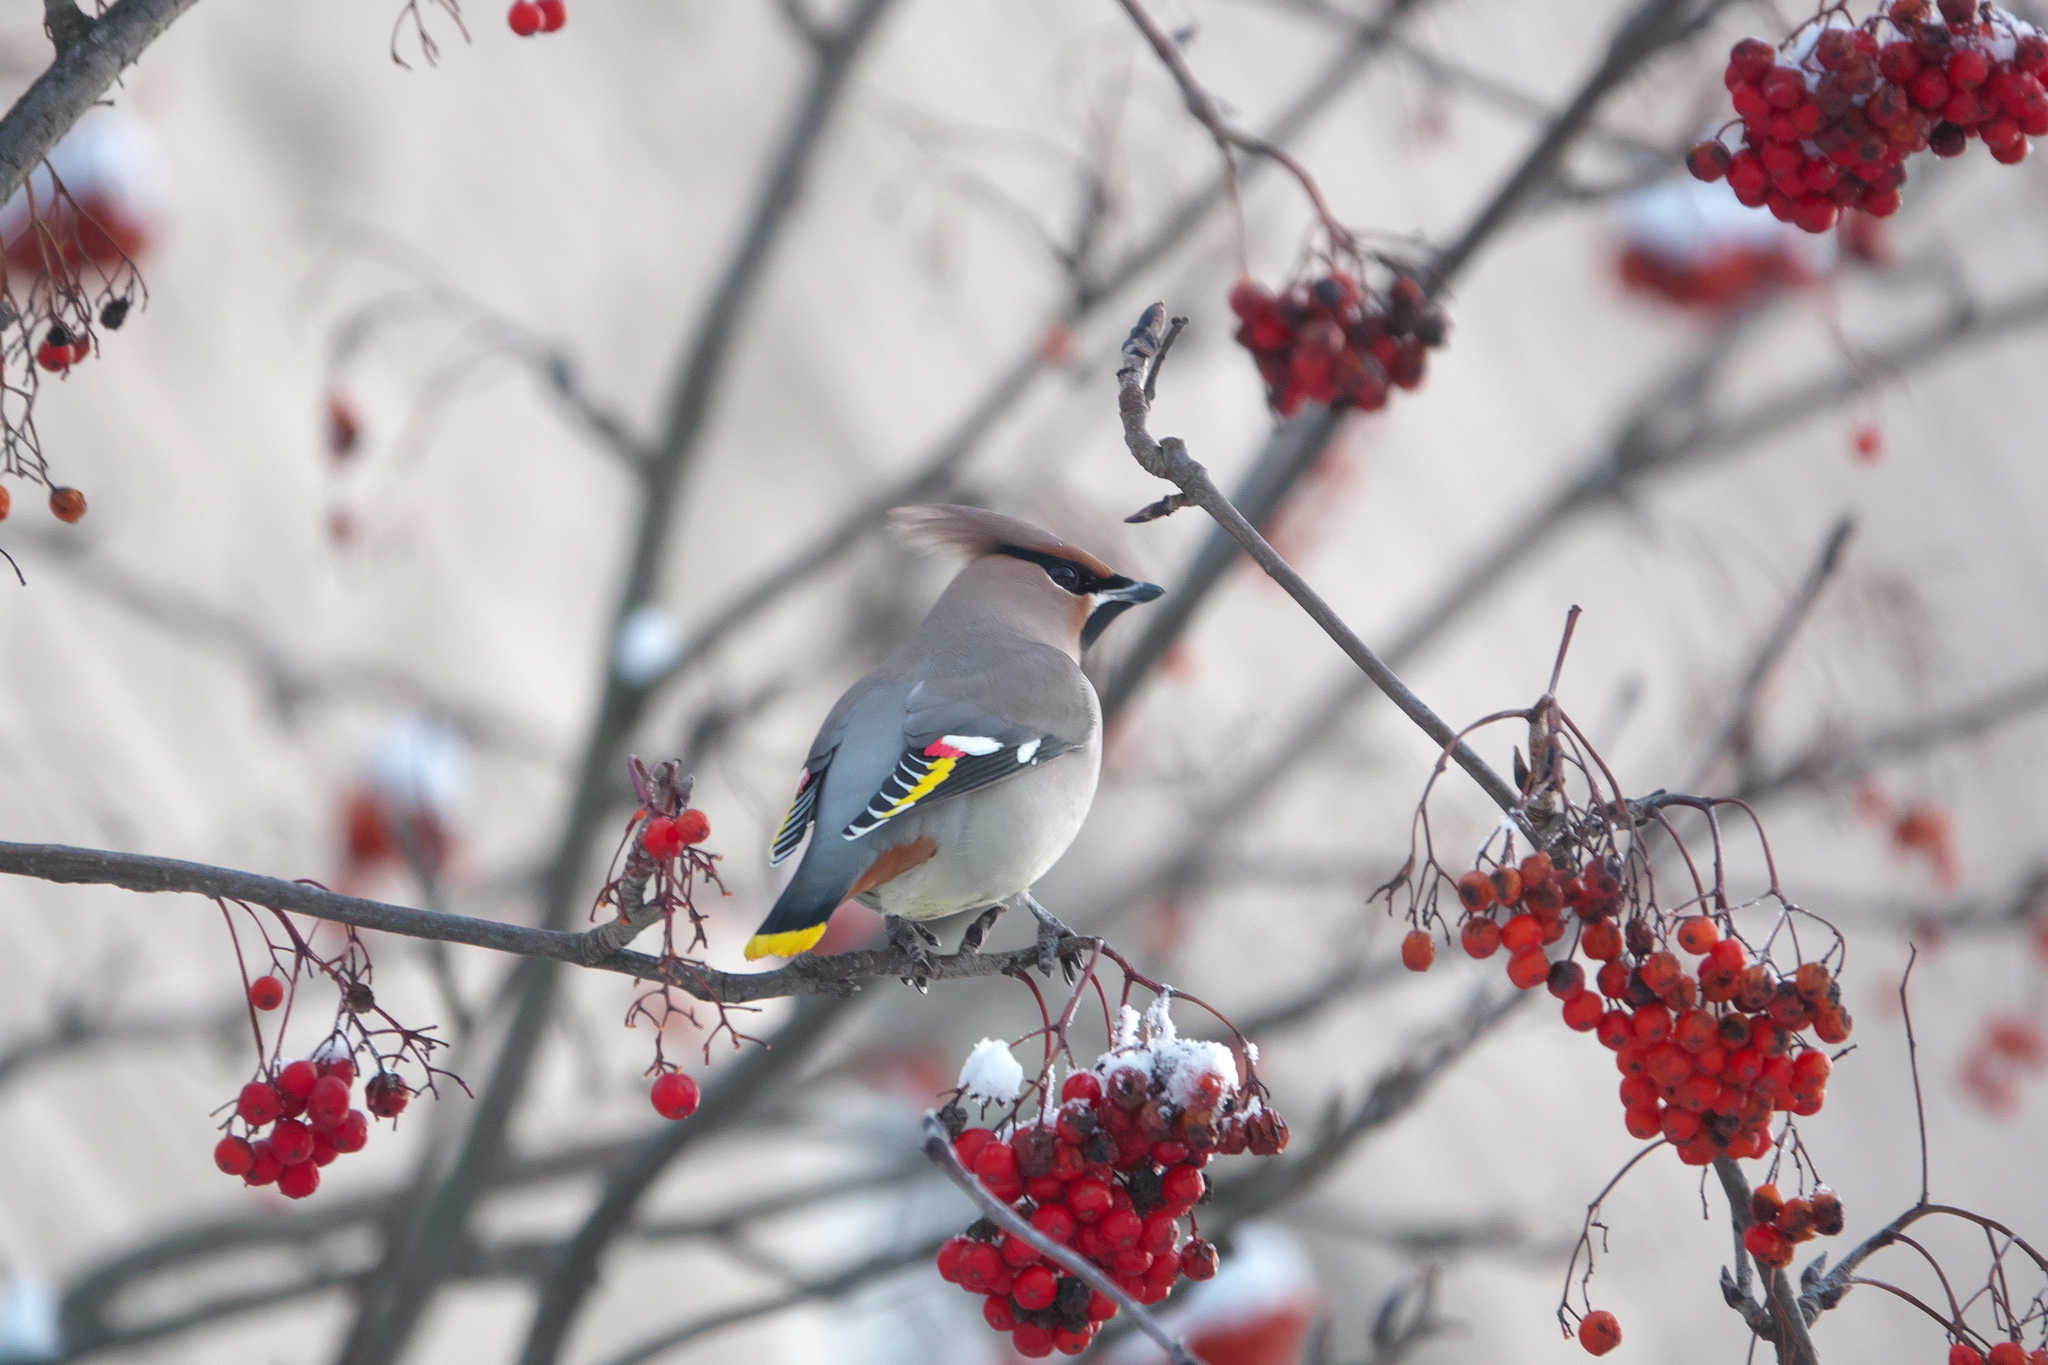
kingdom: Animalia
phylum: Chordata
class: Aves
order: Passeriformes
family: Bombycillidae
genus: Bombycilla
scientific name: Bombycilla garrulus
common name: Bohemian waxwing
